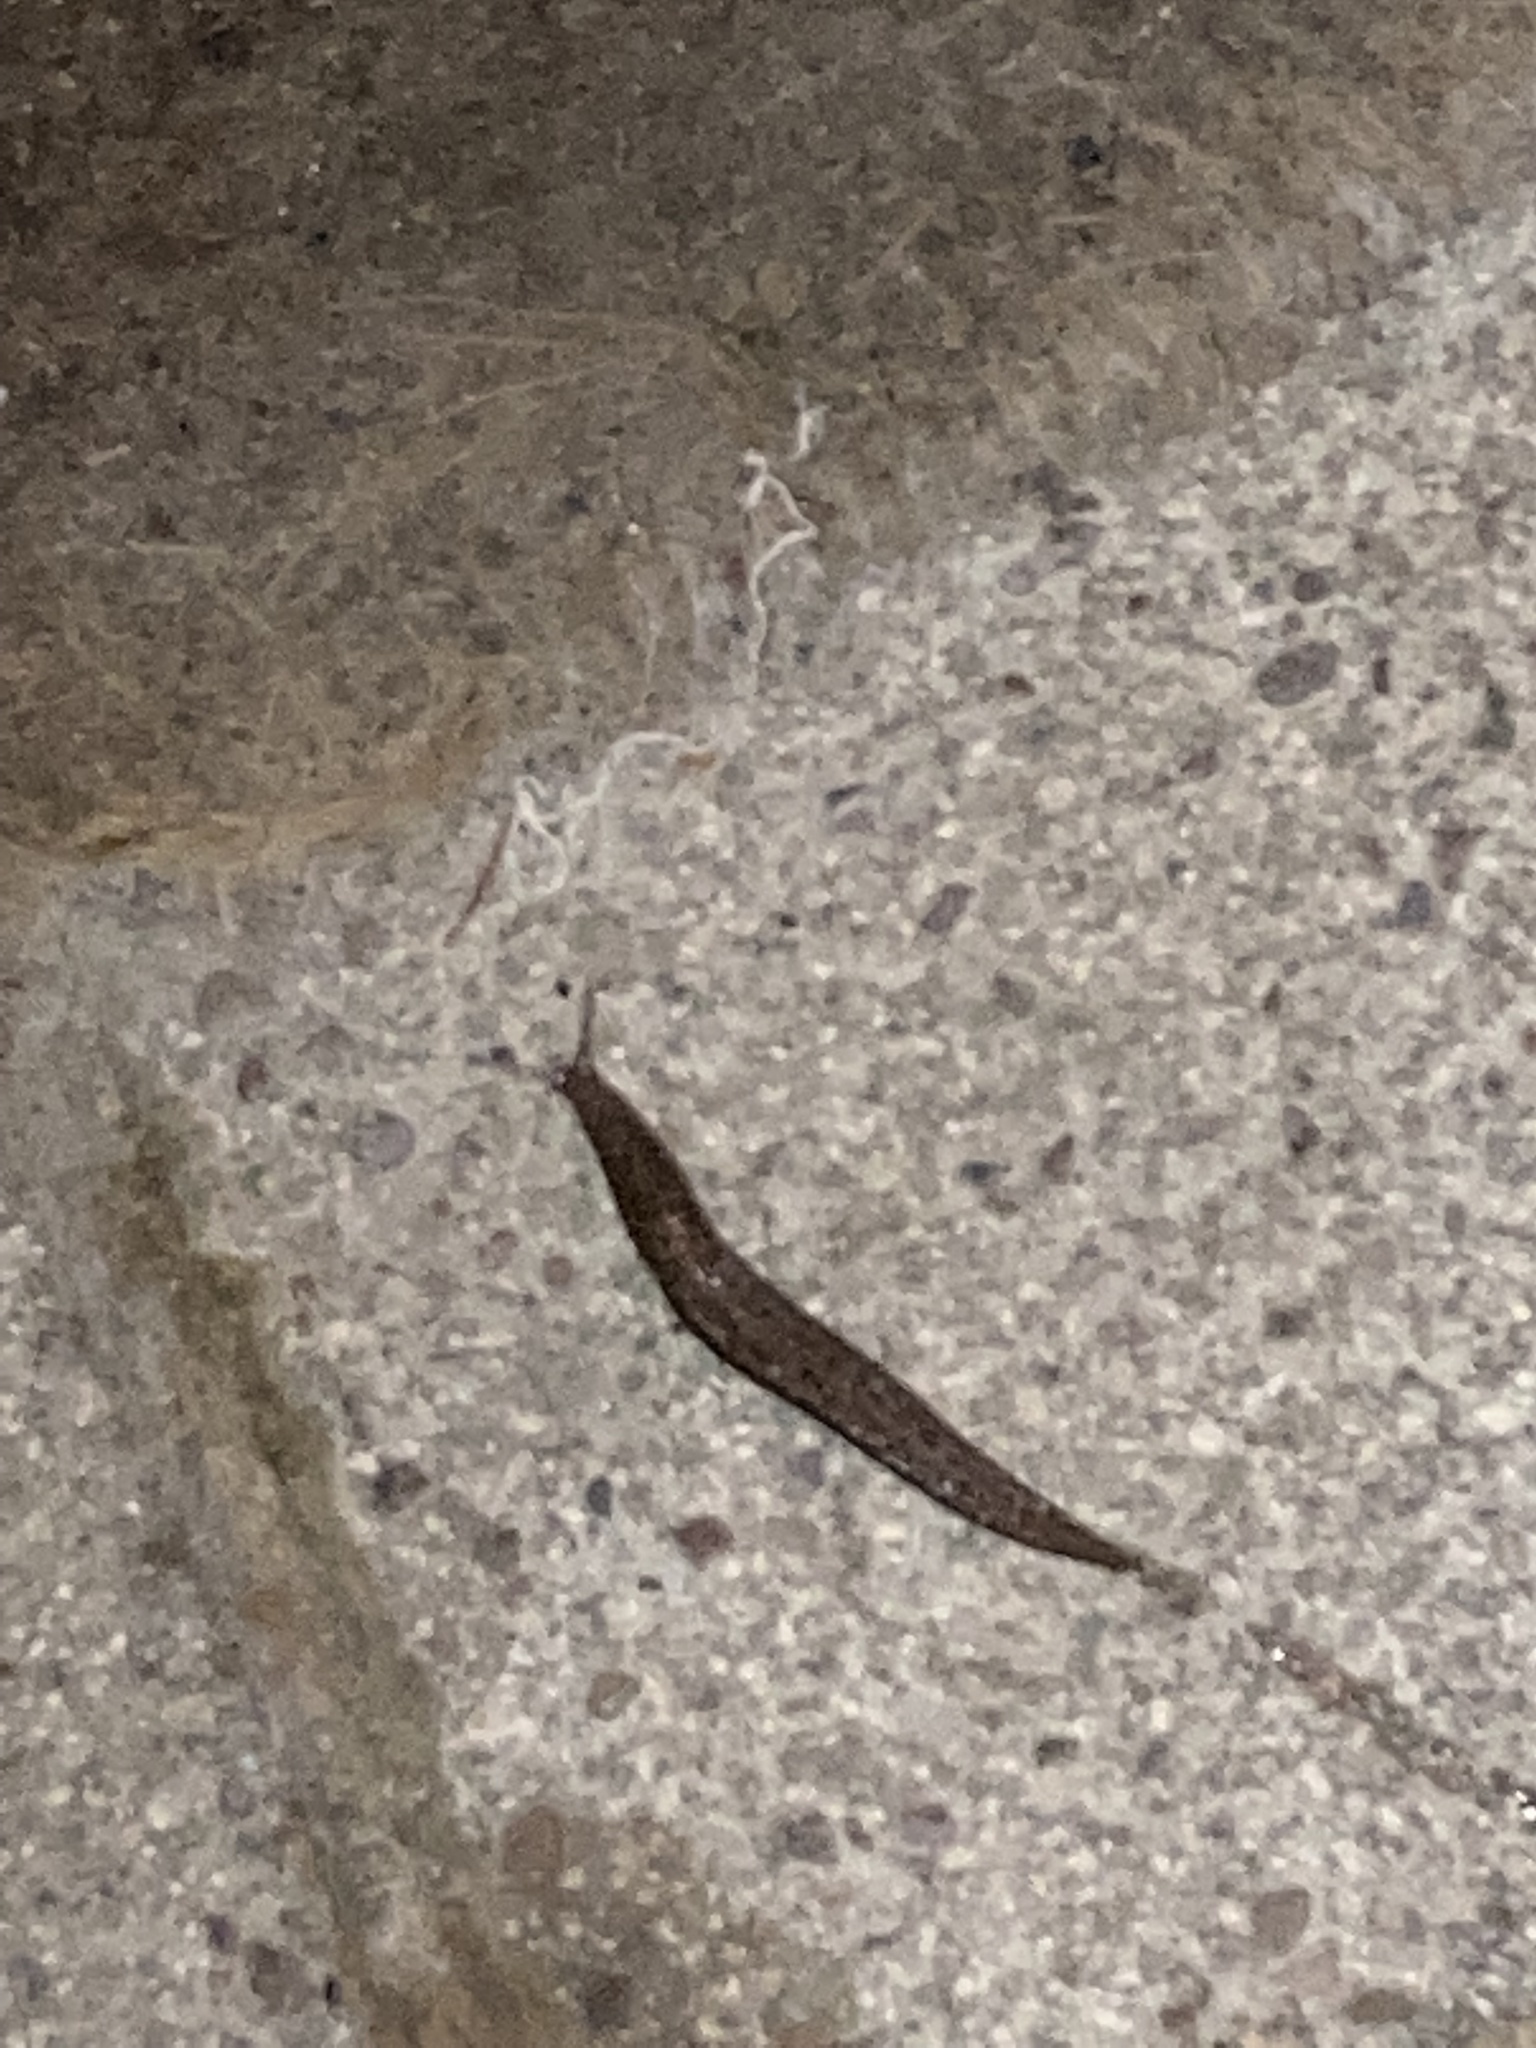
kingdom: Animalia
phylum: Mollusca
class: Gastropoda
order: Stylommatophora
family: Limacidae
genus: Limax
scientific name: Limax maximus
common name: Great grey slug
